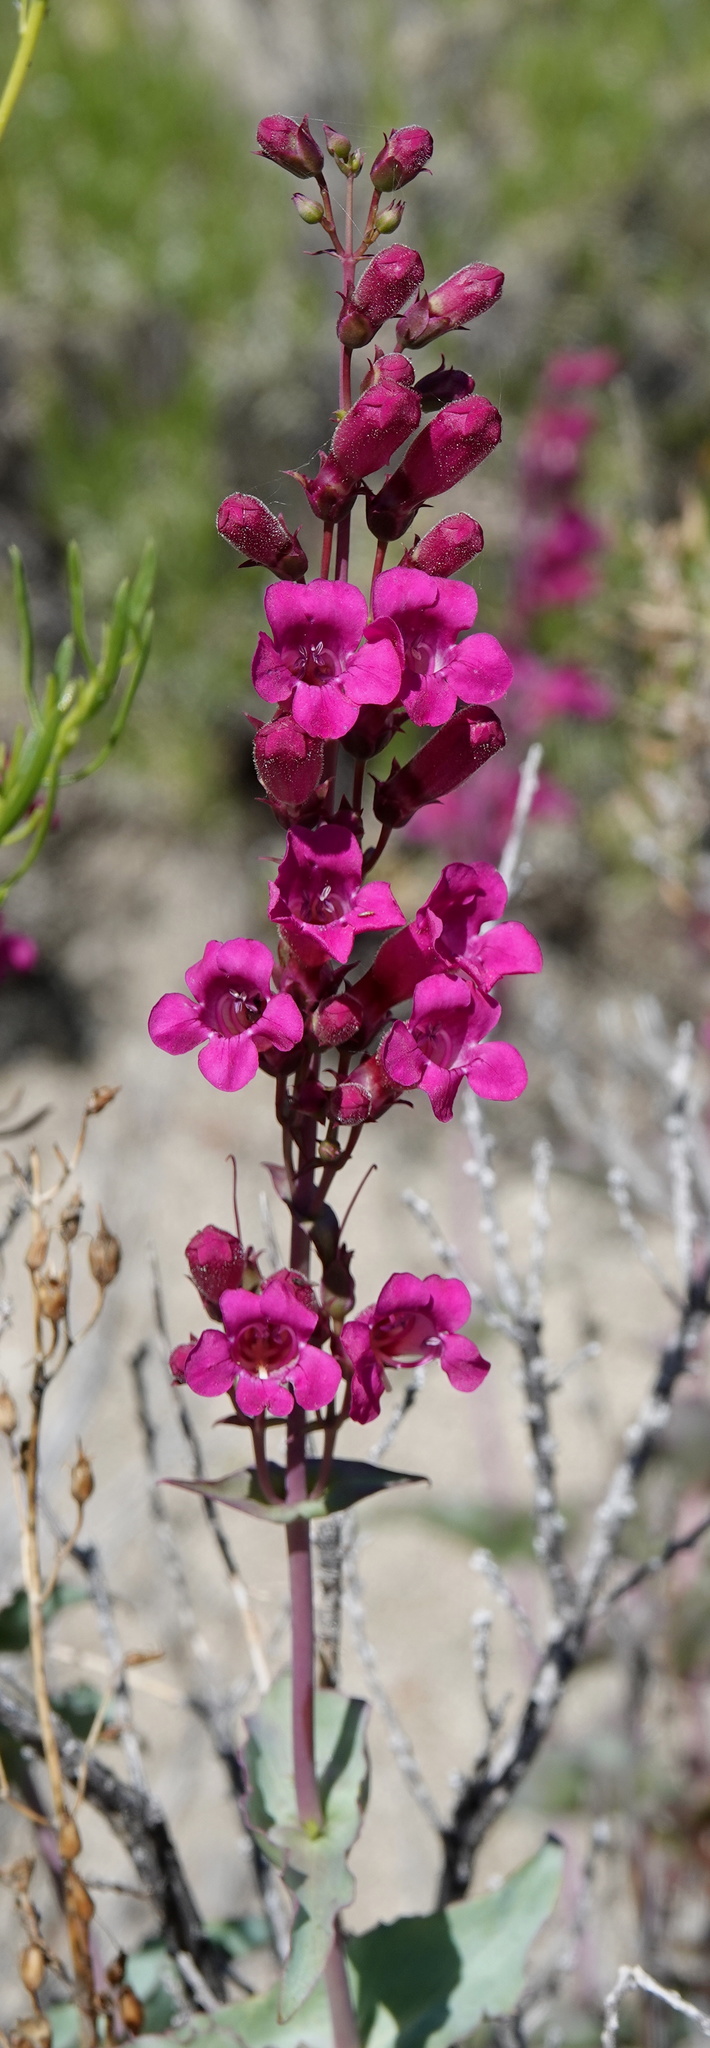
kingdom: Plantae
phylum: Tracheophyta
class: Magnoliopsida
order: Lamiales
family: Plantaginaceae
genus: Penstemon
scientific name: Penstemon clevelandii
